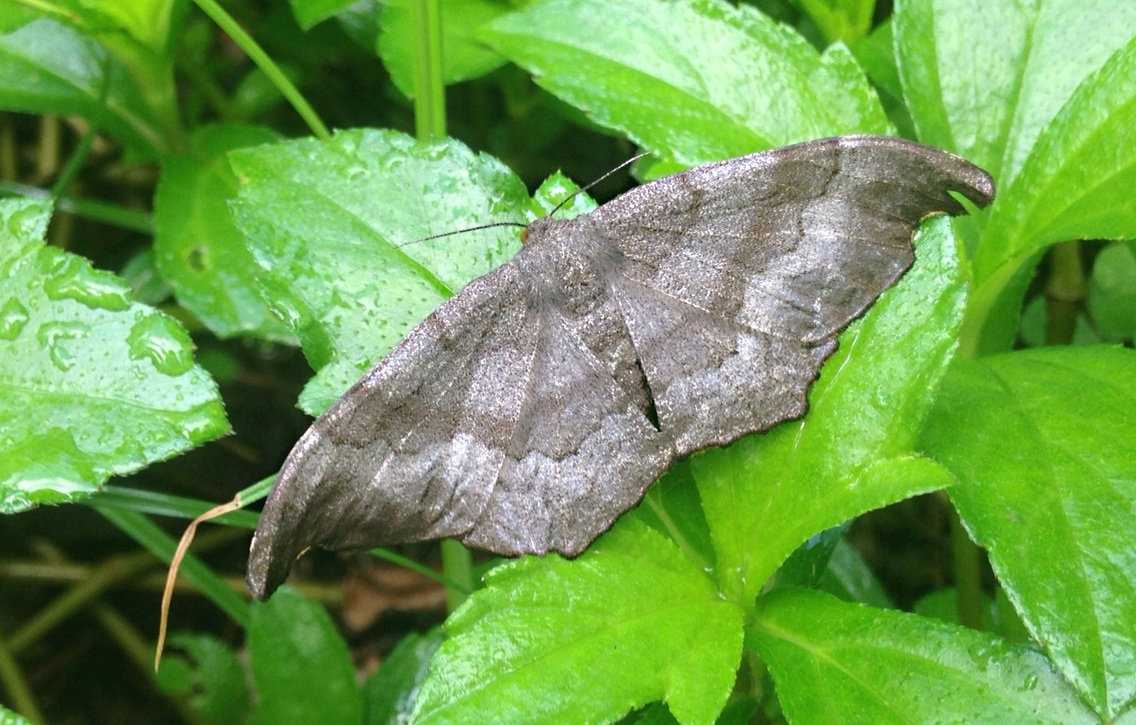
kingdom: Animalia
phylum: Arthropoda
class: Insecta
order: Lepidoptera
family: Geometridae
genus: Hyposidra
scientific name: Hyposidra talaca
